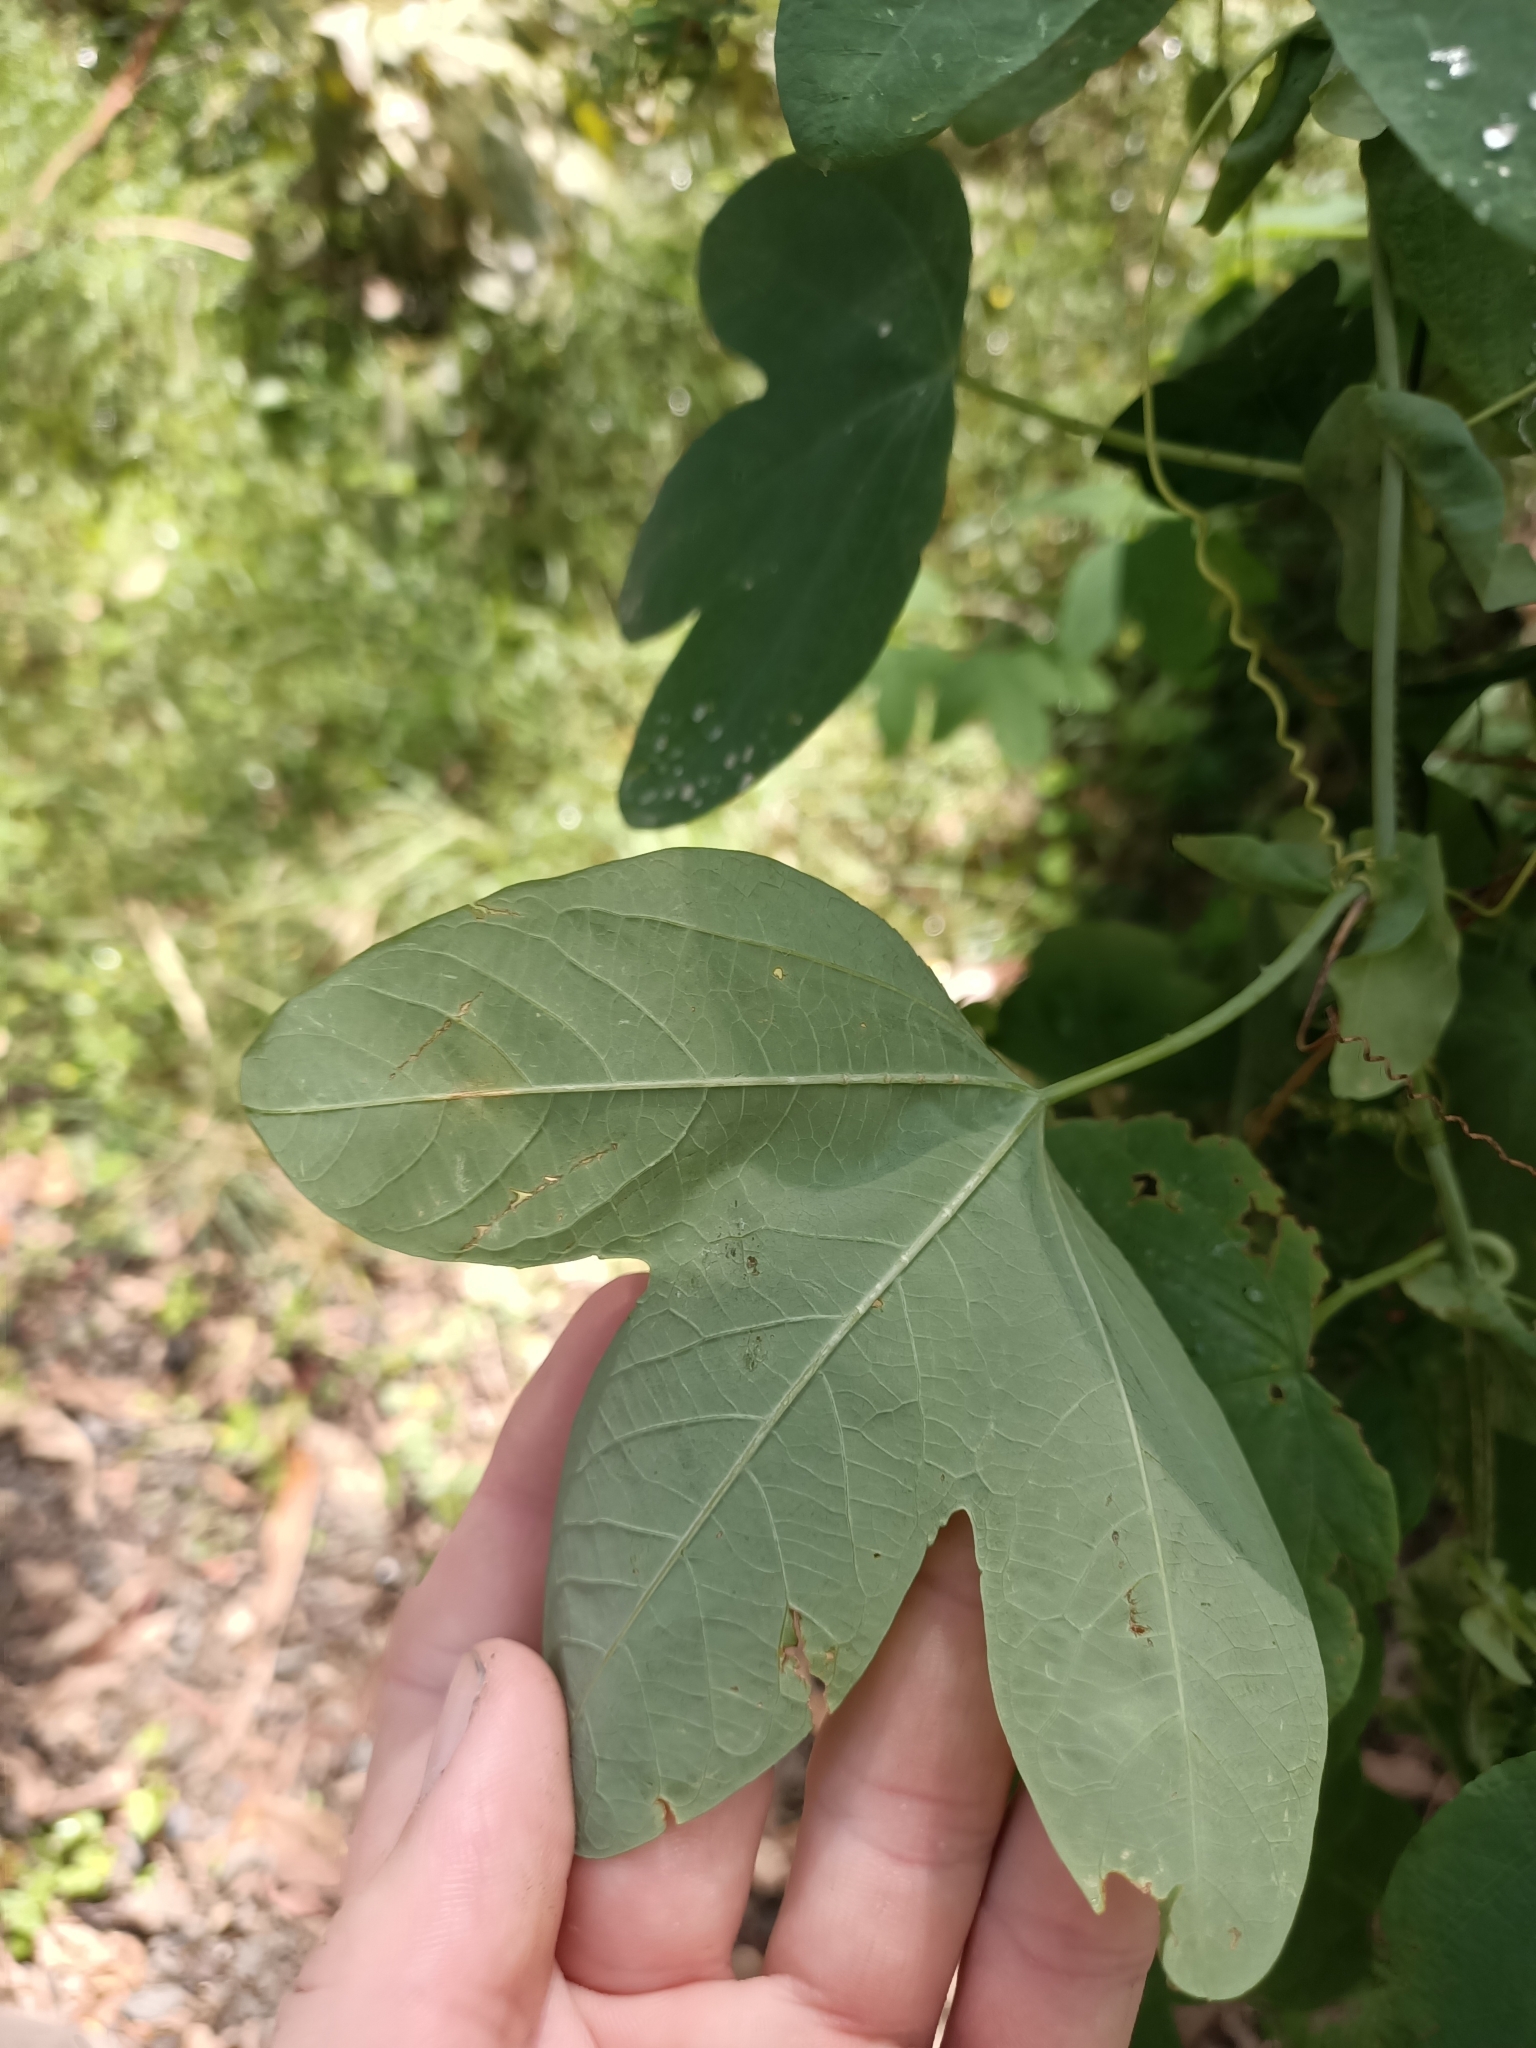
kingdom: Plantae
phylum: Tracheophyta
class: Magnoliopsida
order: Malpighiales
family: Passifloraceae
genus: Passiflora
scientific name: Passiflora subpeltata
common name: White passionflower
